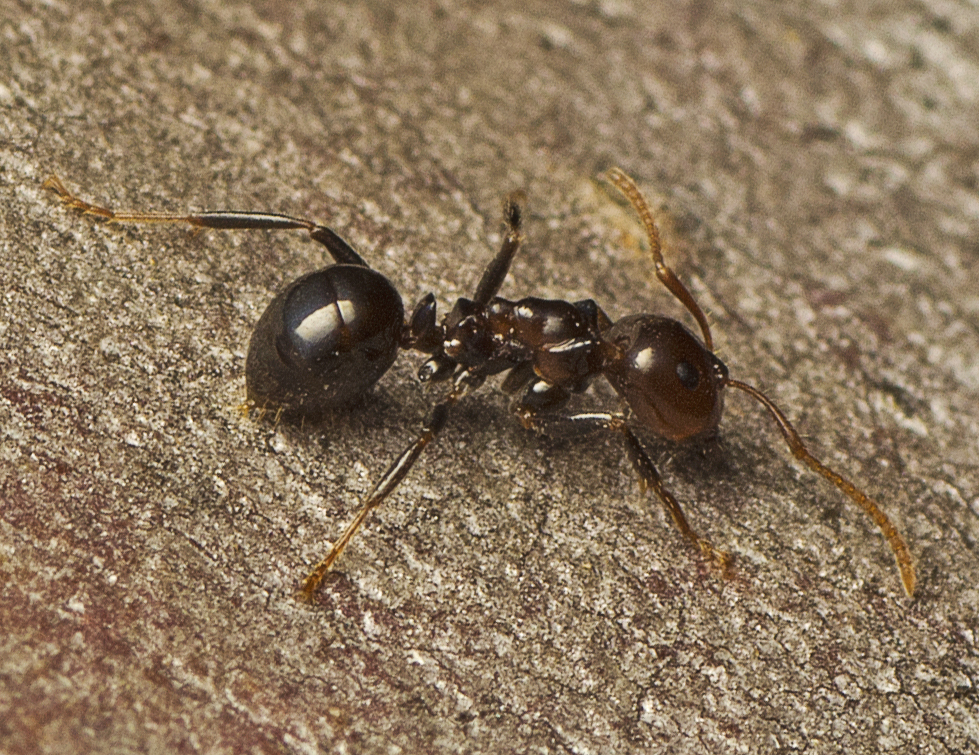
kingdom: Animalia
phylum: Arthropoda
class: Insecta
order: Hymenoptera
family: Formicidae
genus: Notoncus
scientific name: Notoncus gilberti
